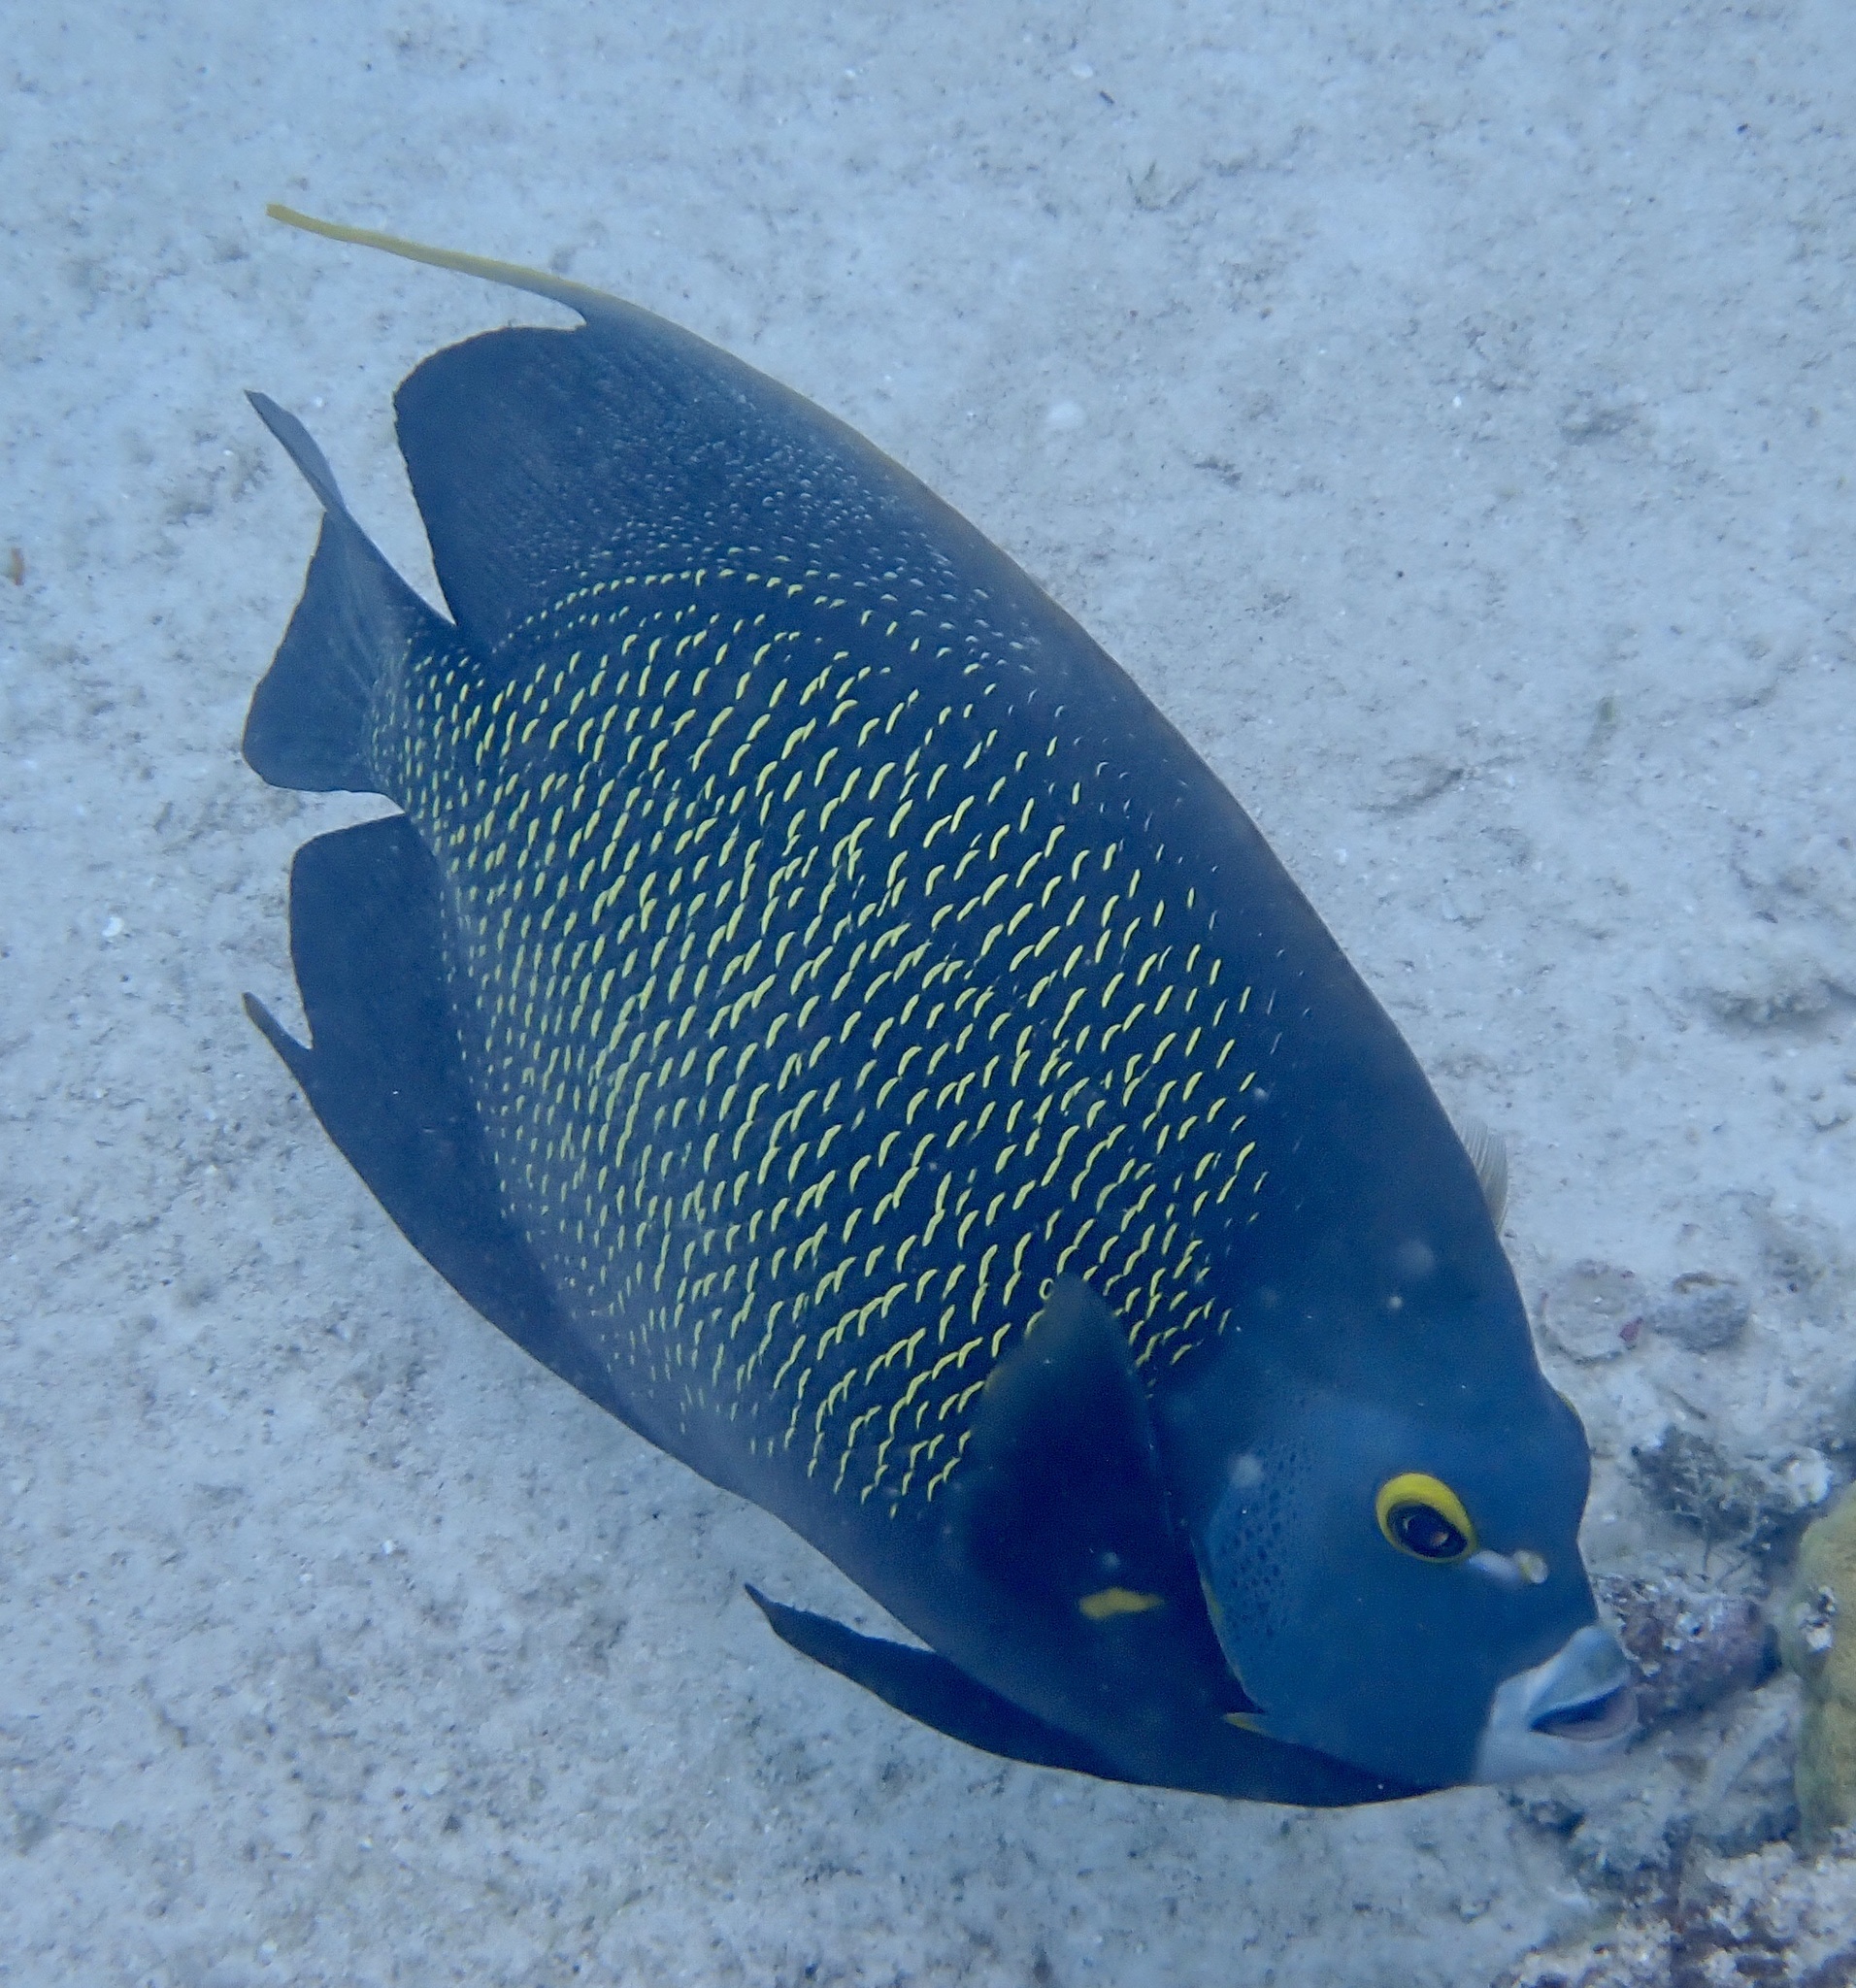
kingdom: Animalia
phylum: Chordata
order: Perciformes
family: Pomacanthidae
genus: Pomacanthus
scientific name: Pomacanthus paru
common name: French angelfish
